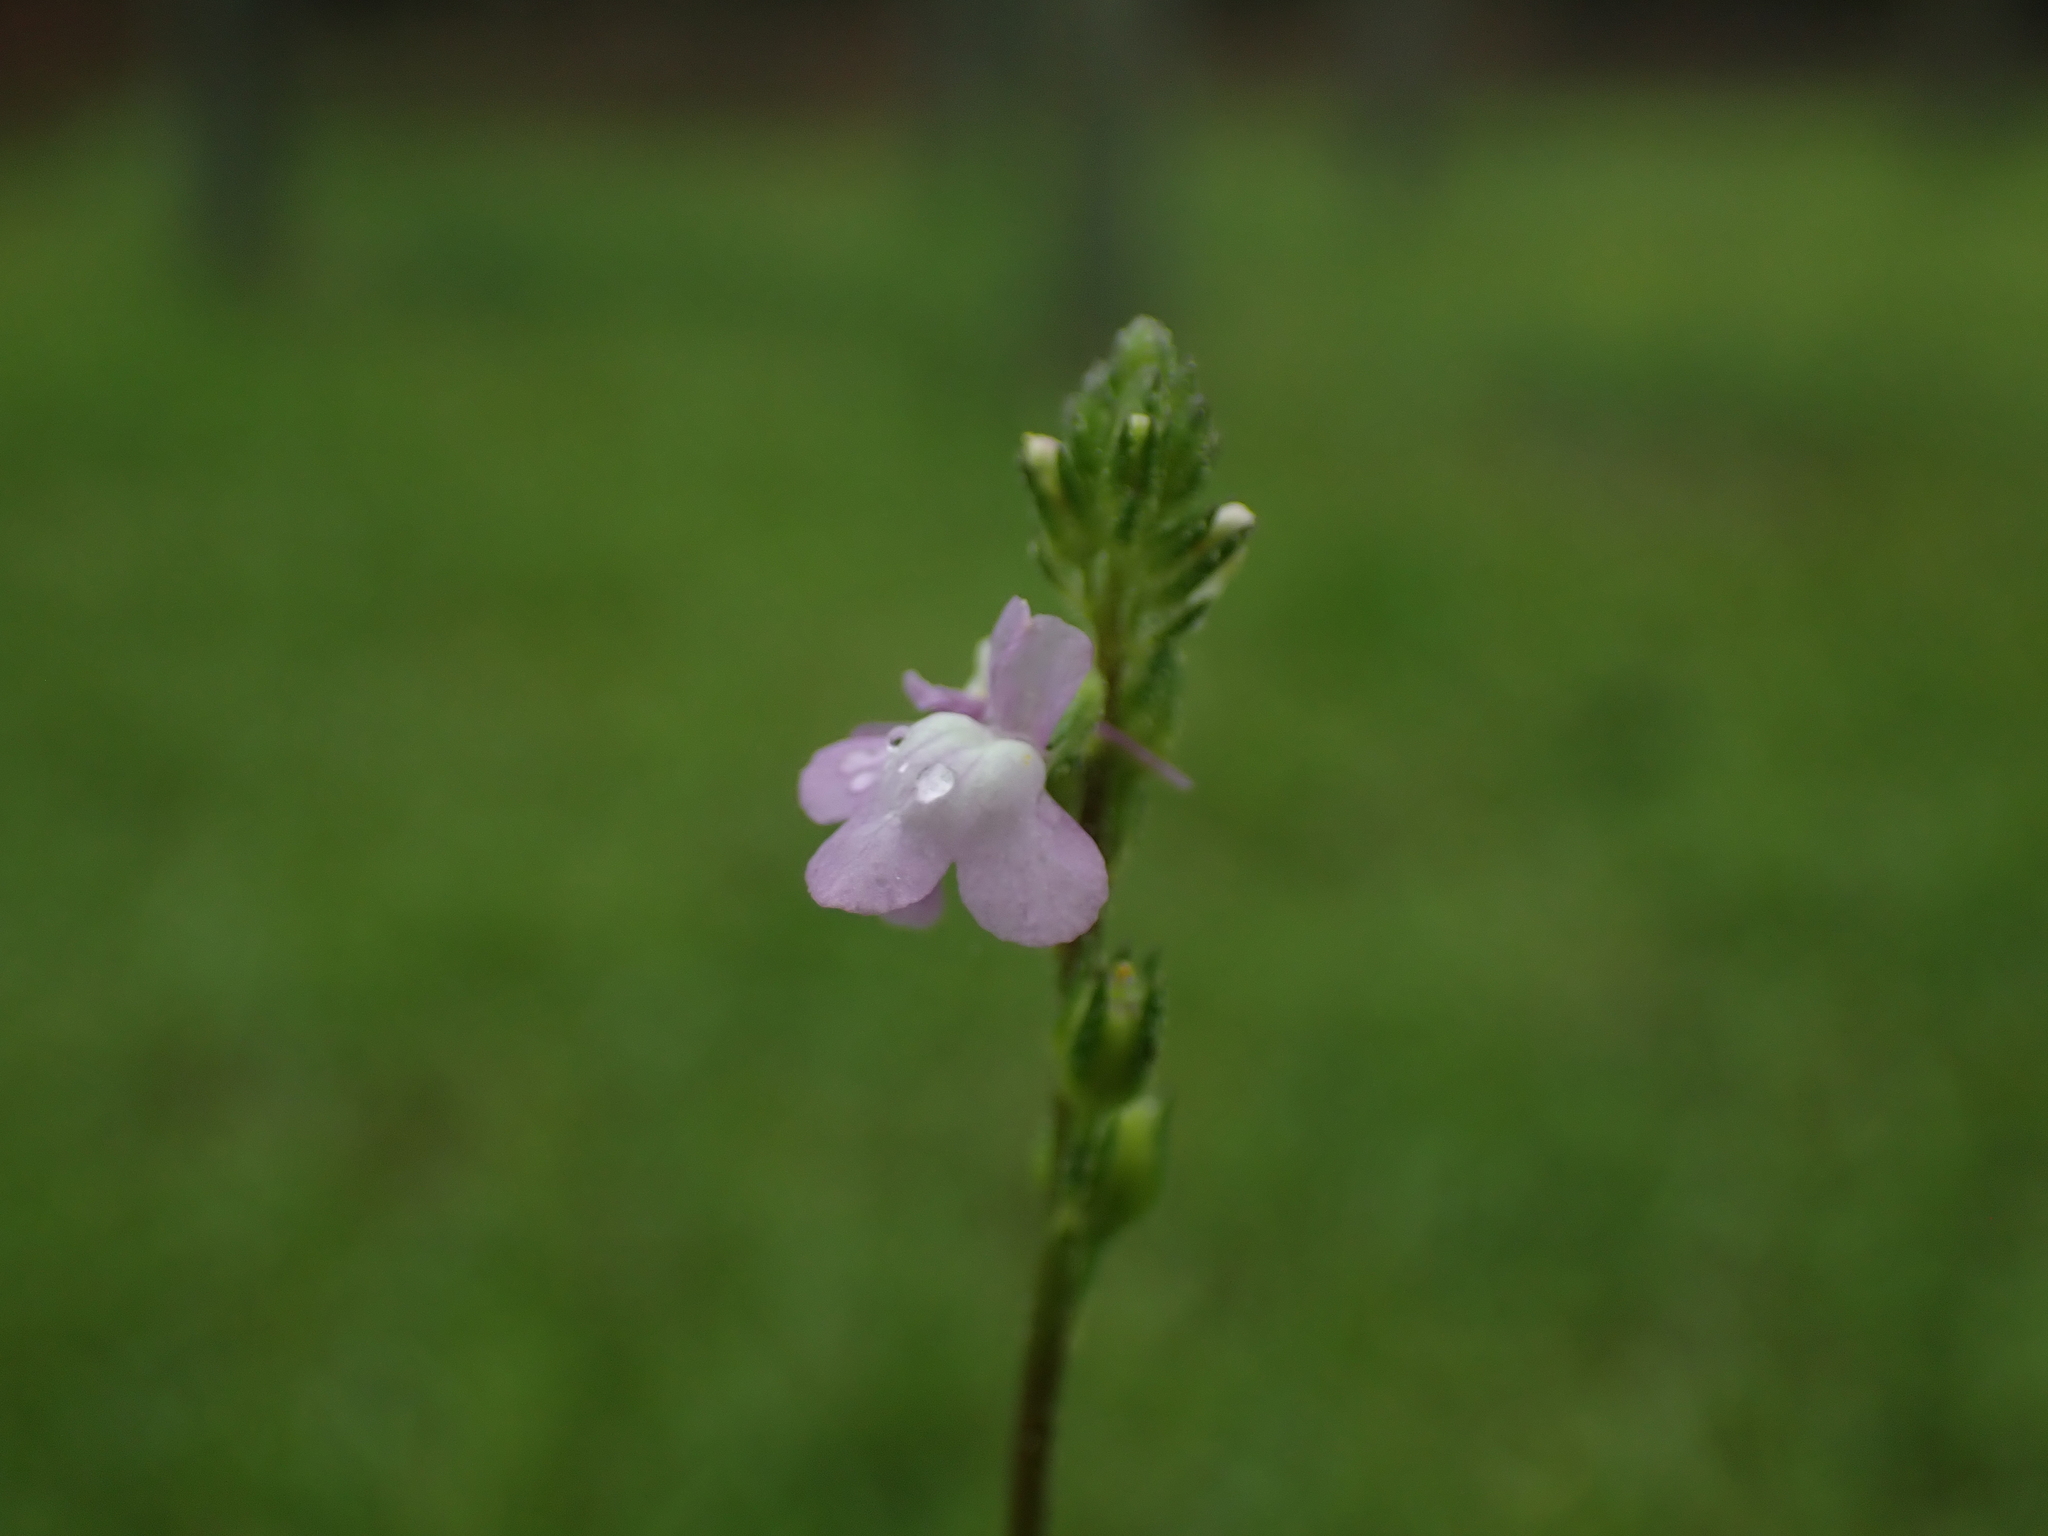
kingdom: Plantae
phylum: Tracheophyta
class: Magnoliopsida
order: Lamiales
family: Plantaginaceae
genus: Nuttallanthus
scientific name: Nuttallanthus canadensis
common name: Blue toadflax
